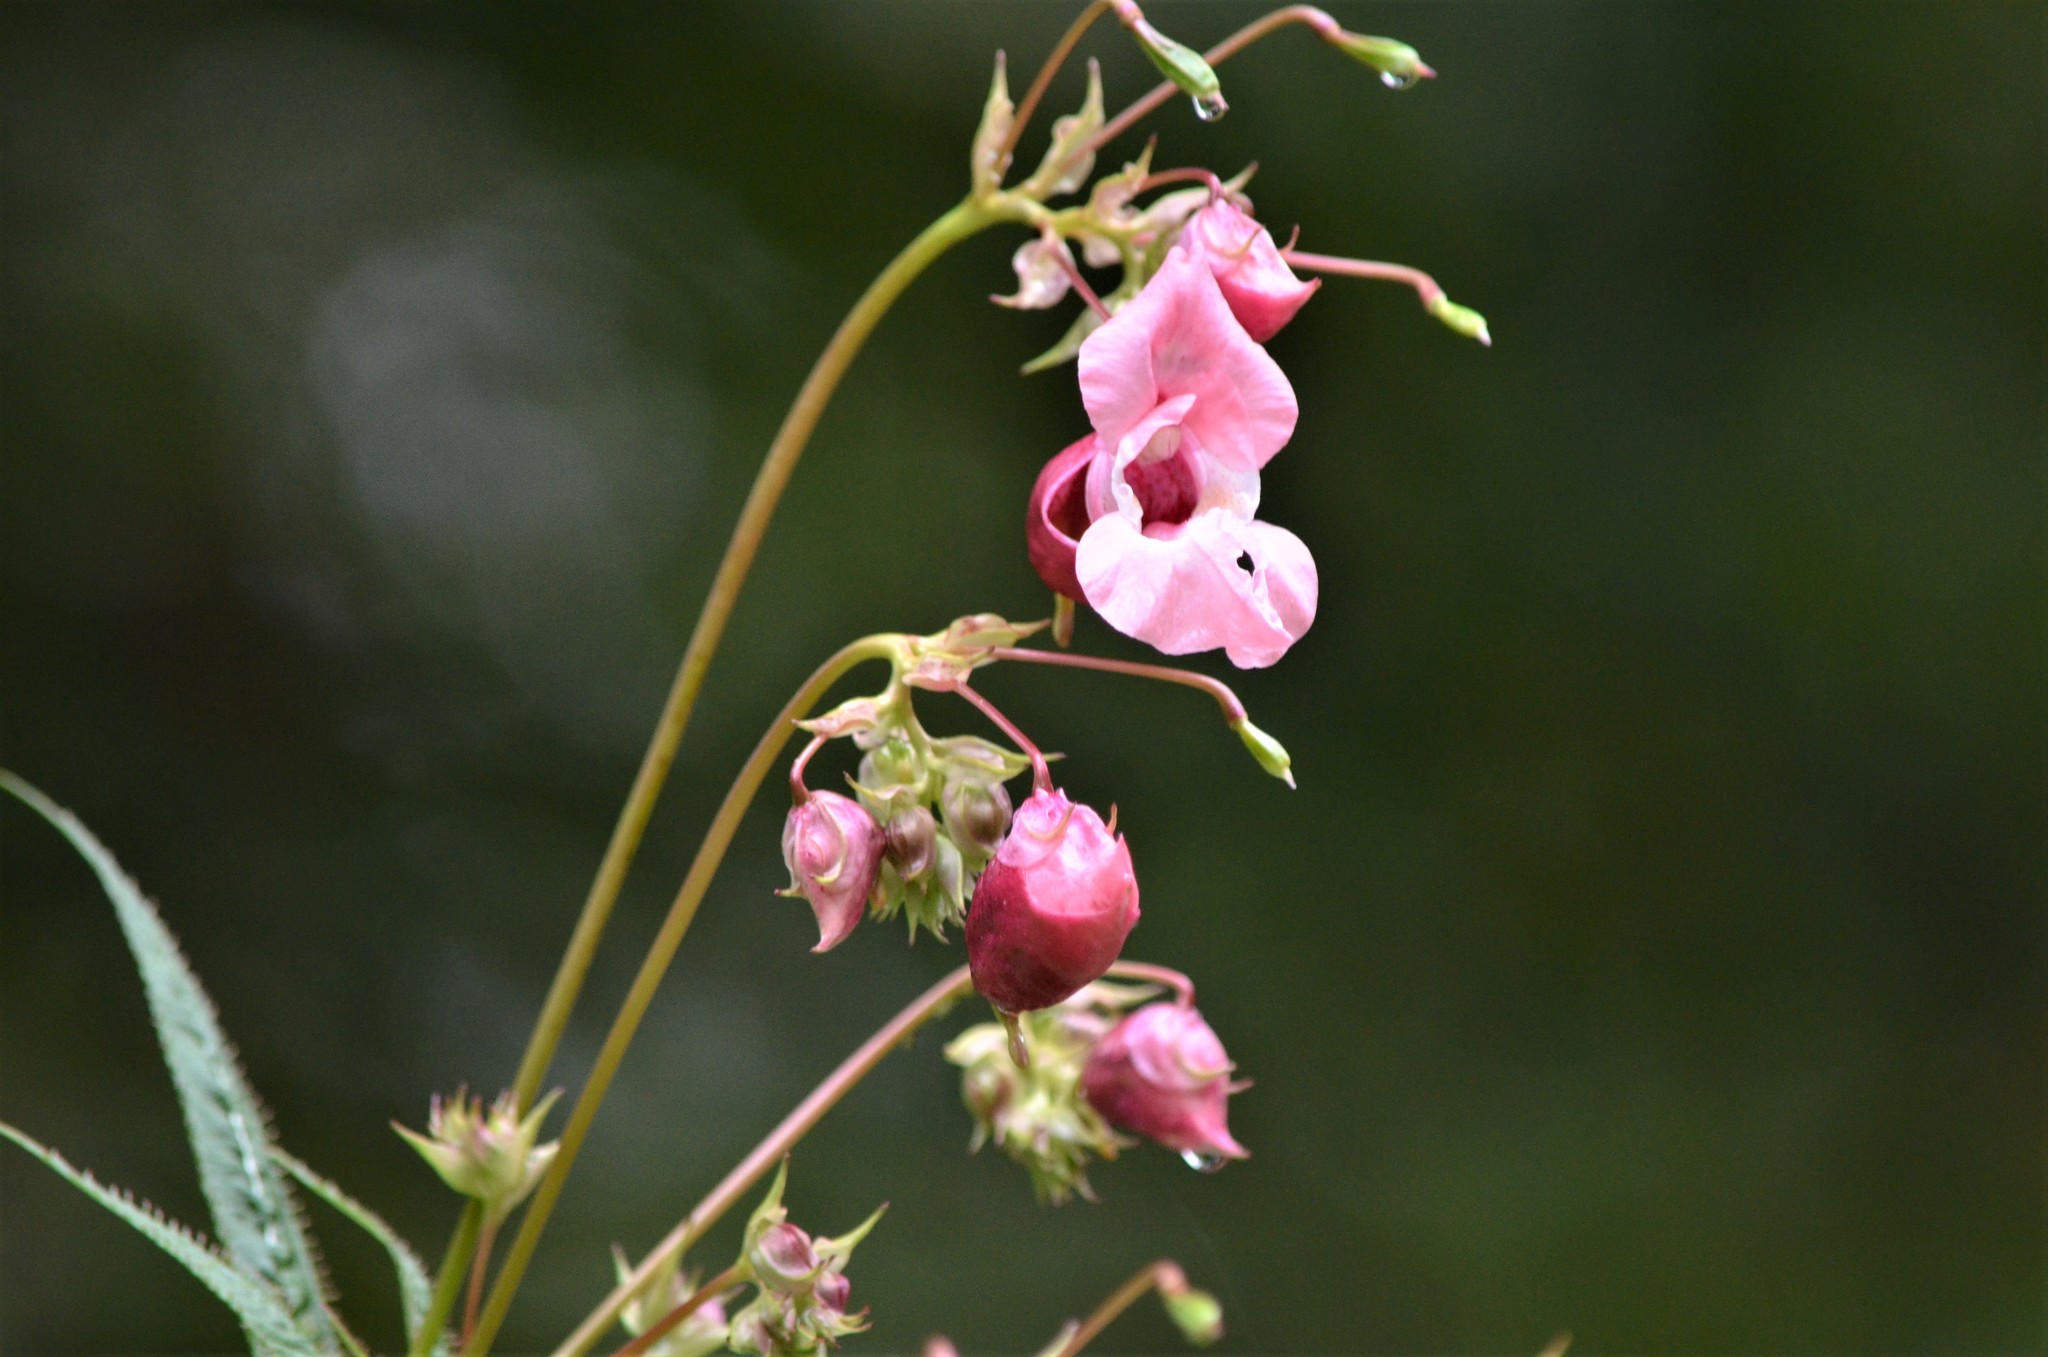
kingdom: Plantae
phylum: Tracheophyta
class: Magnoliopsida
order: Ericales
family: Balsaminaceae
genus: Impatiens
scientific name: Impatiens glandulifera
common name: Himalayan balsam
